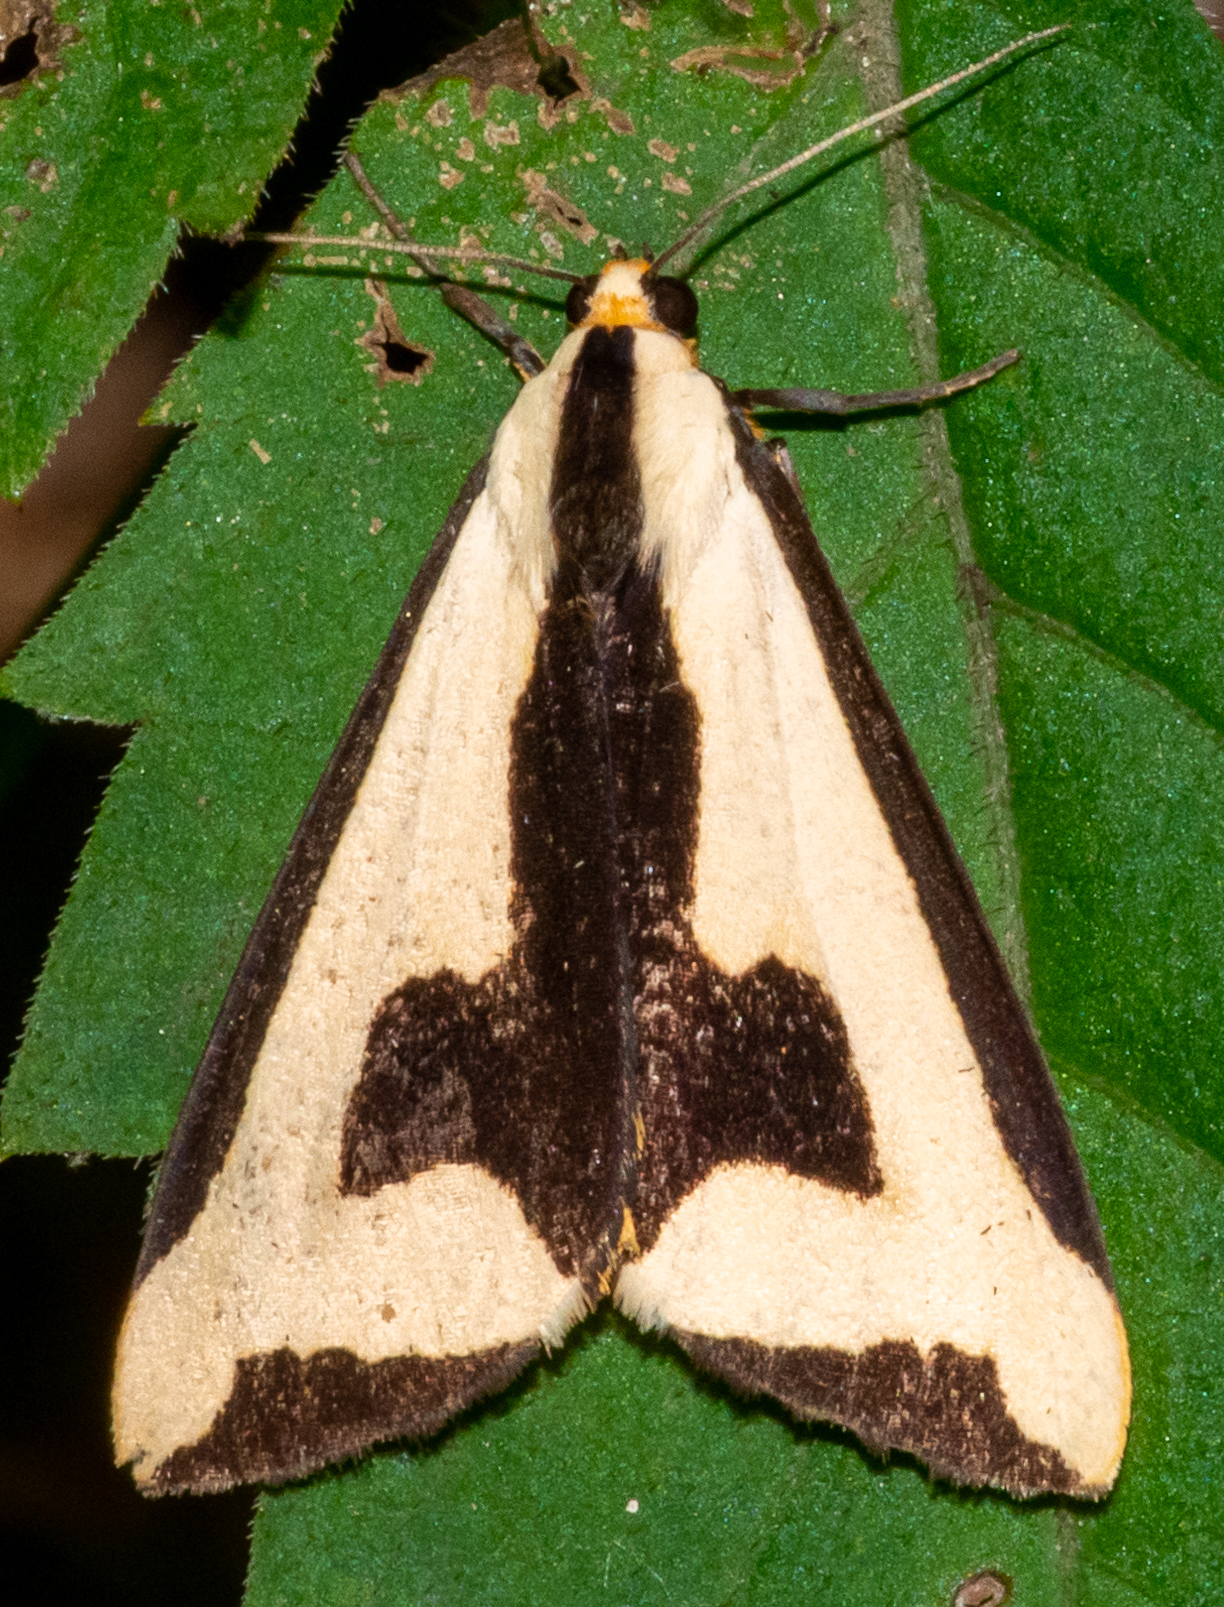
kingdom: Animalia
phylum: Arthropoda
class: Insecta
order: Lepidoptera
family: Erebidae
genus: Haploa
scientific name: Haploa clymene
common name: Clymene moth
